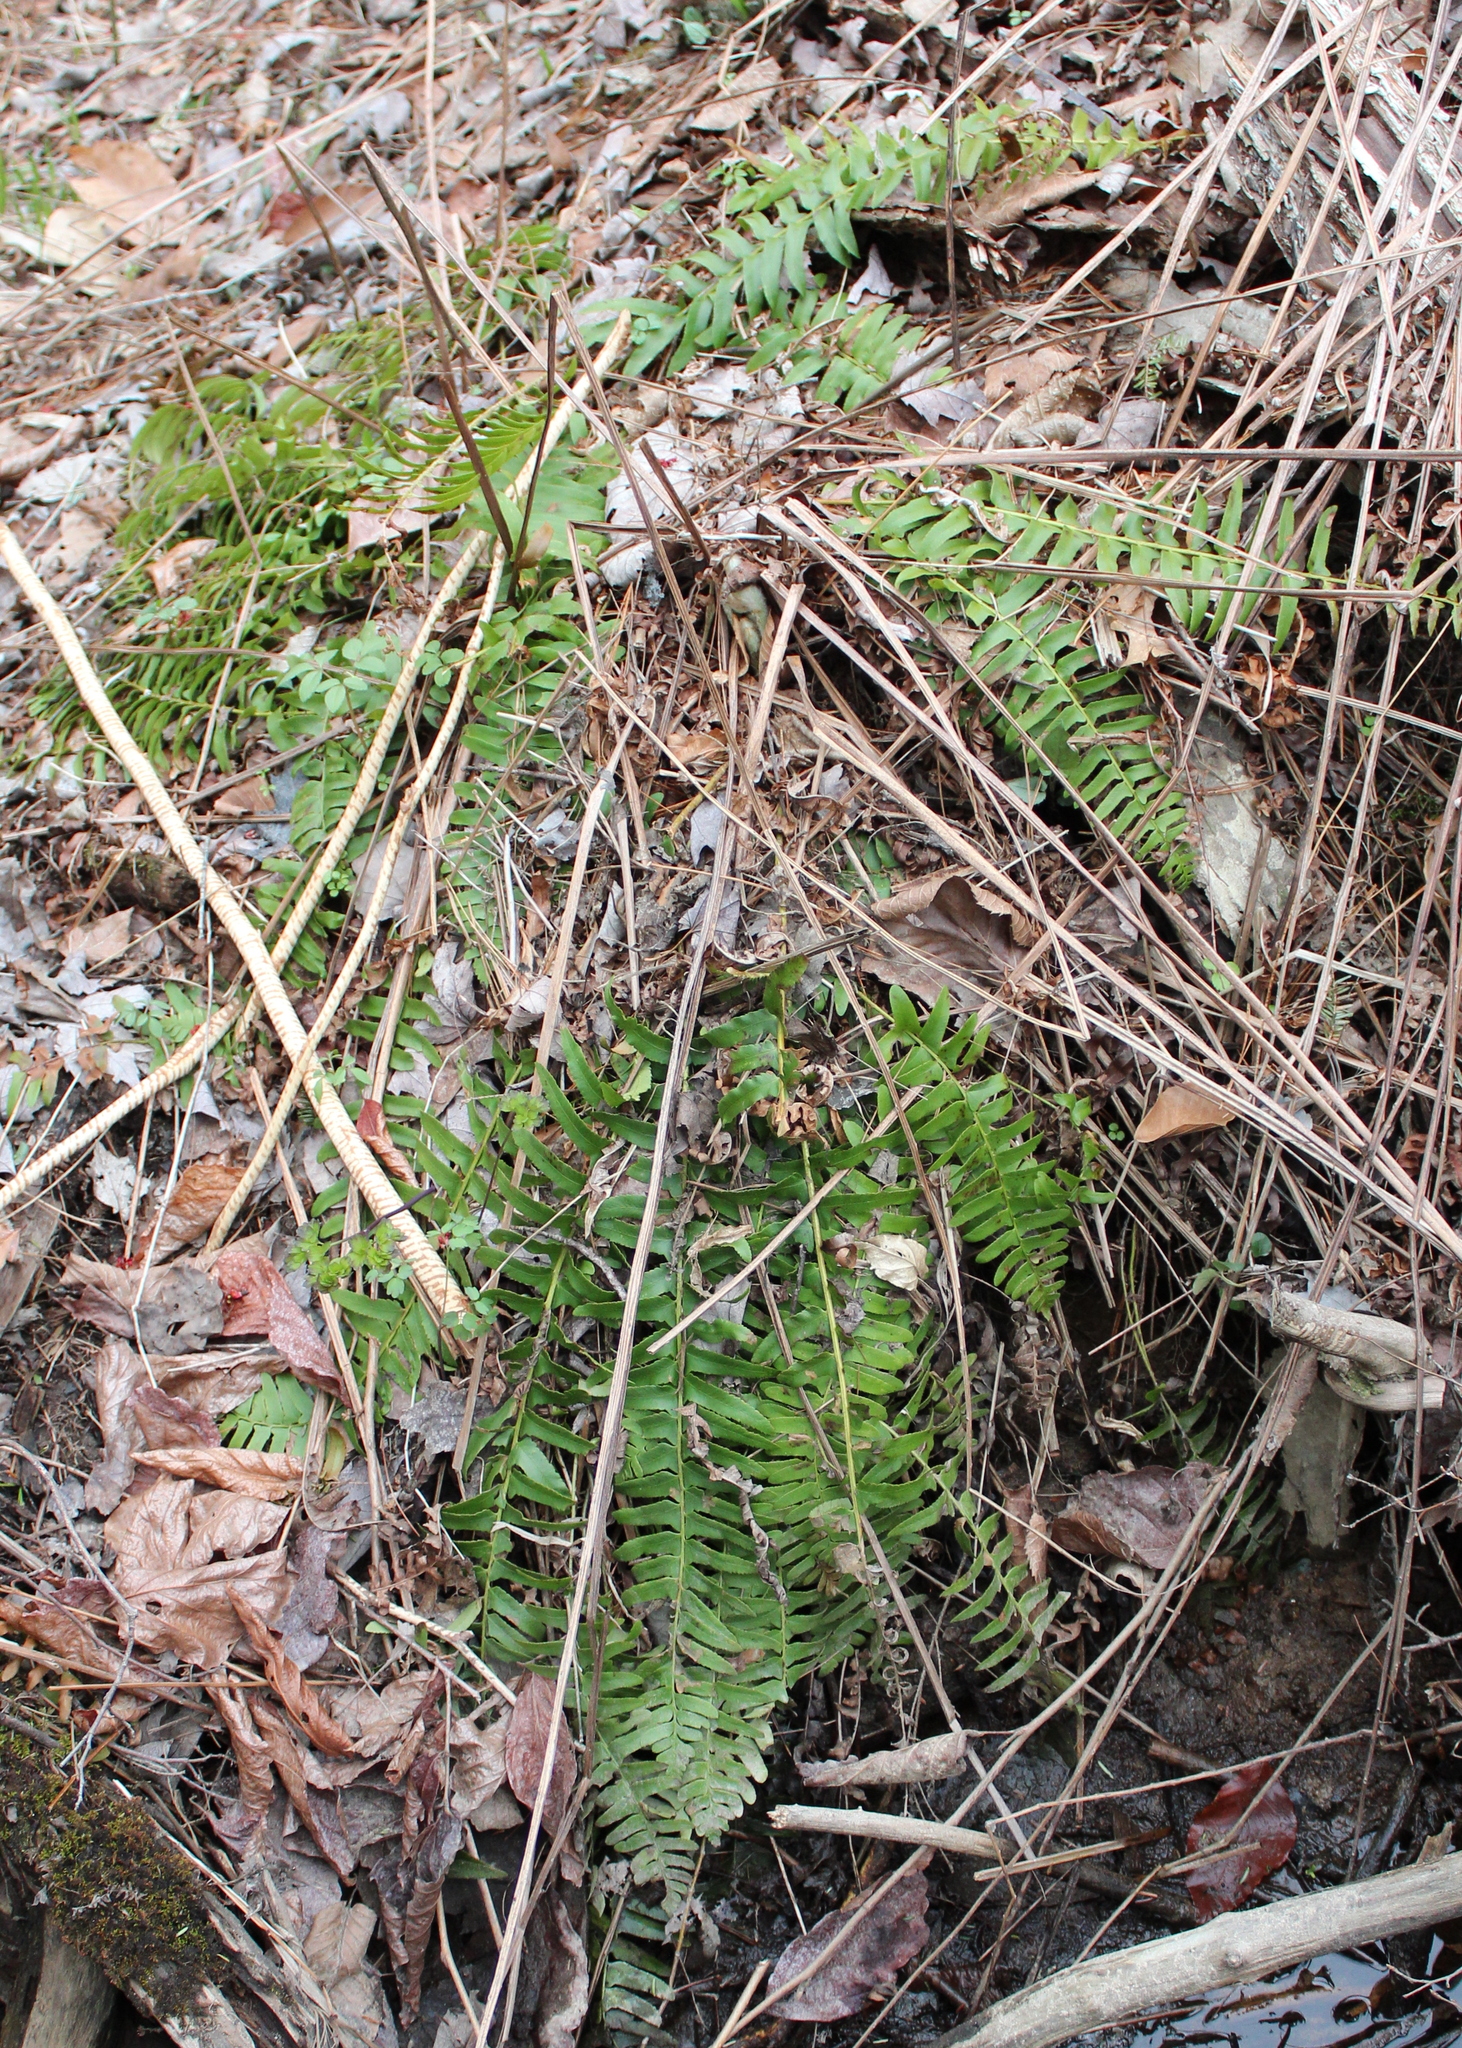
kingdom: Plantae
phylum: Tracheophyta
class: Polypodiopsida
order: Polypodiales
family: Dryopteridaceae
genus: Polystichum
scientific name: Polystichum acrostichoides
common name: Christmas fern
